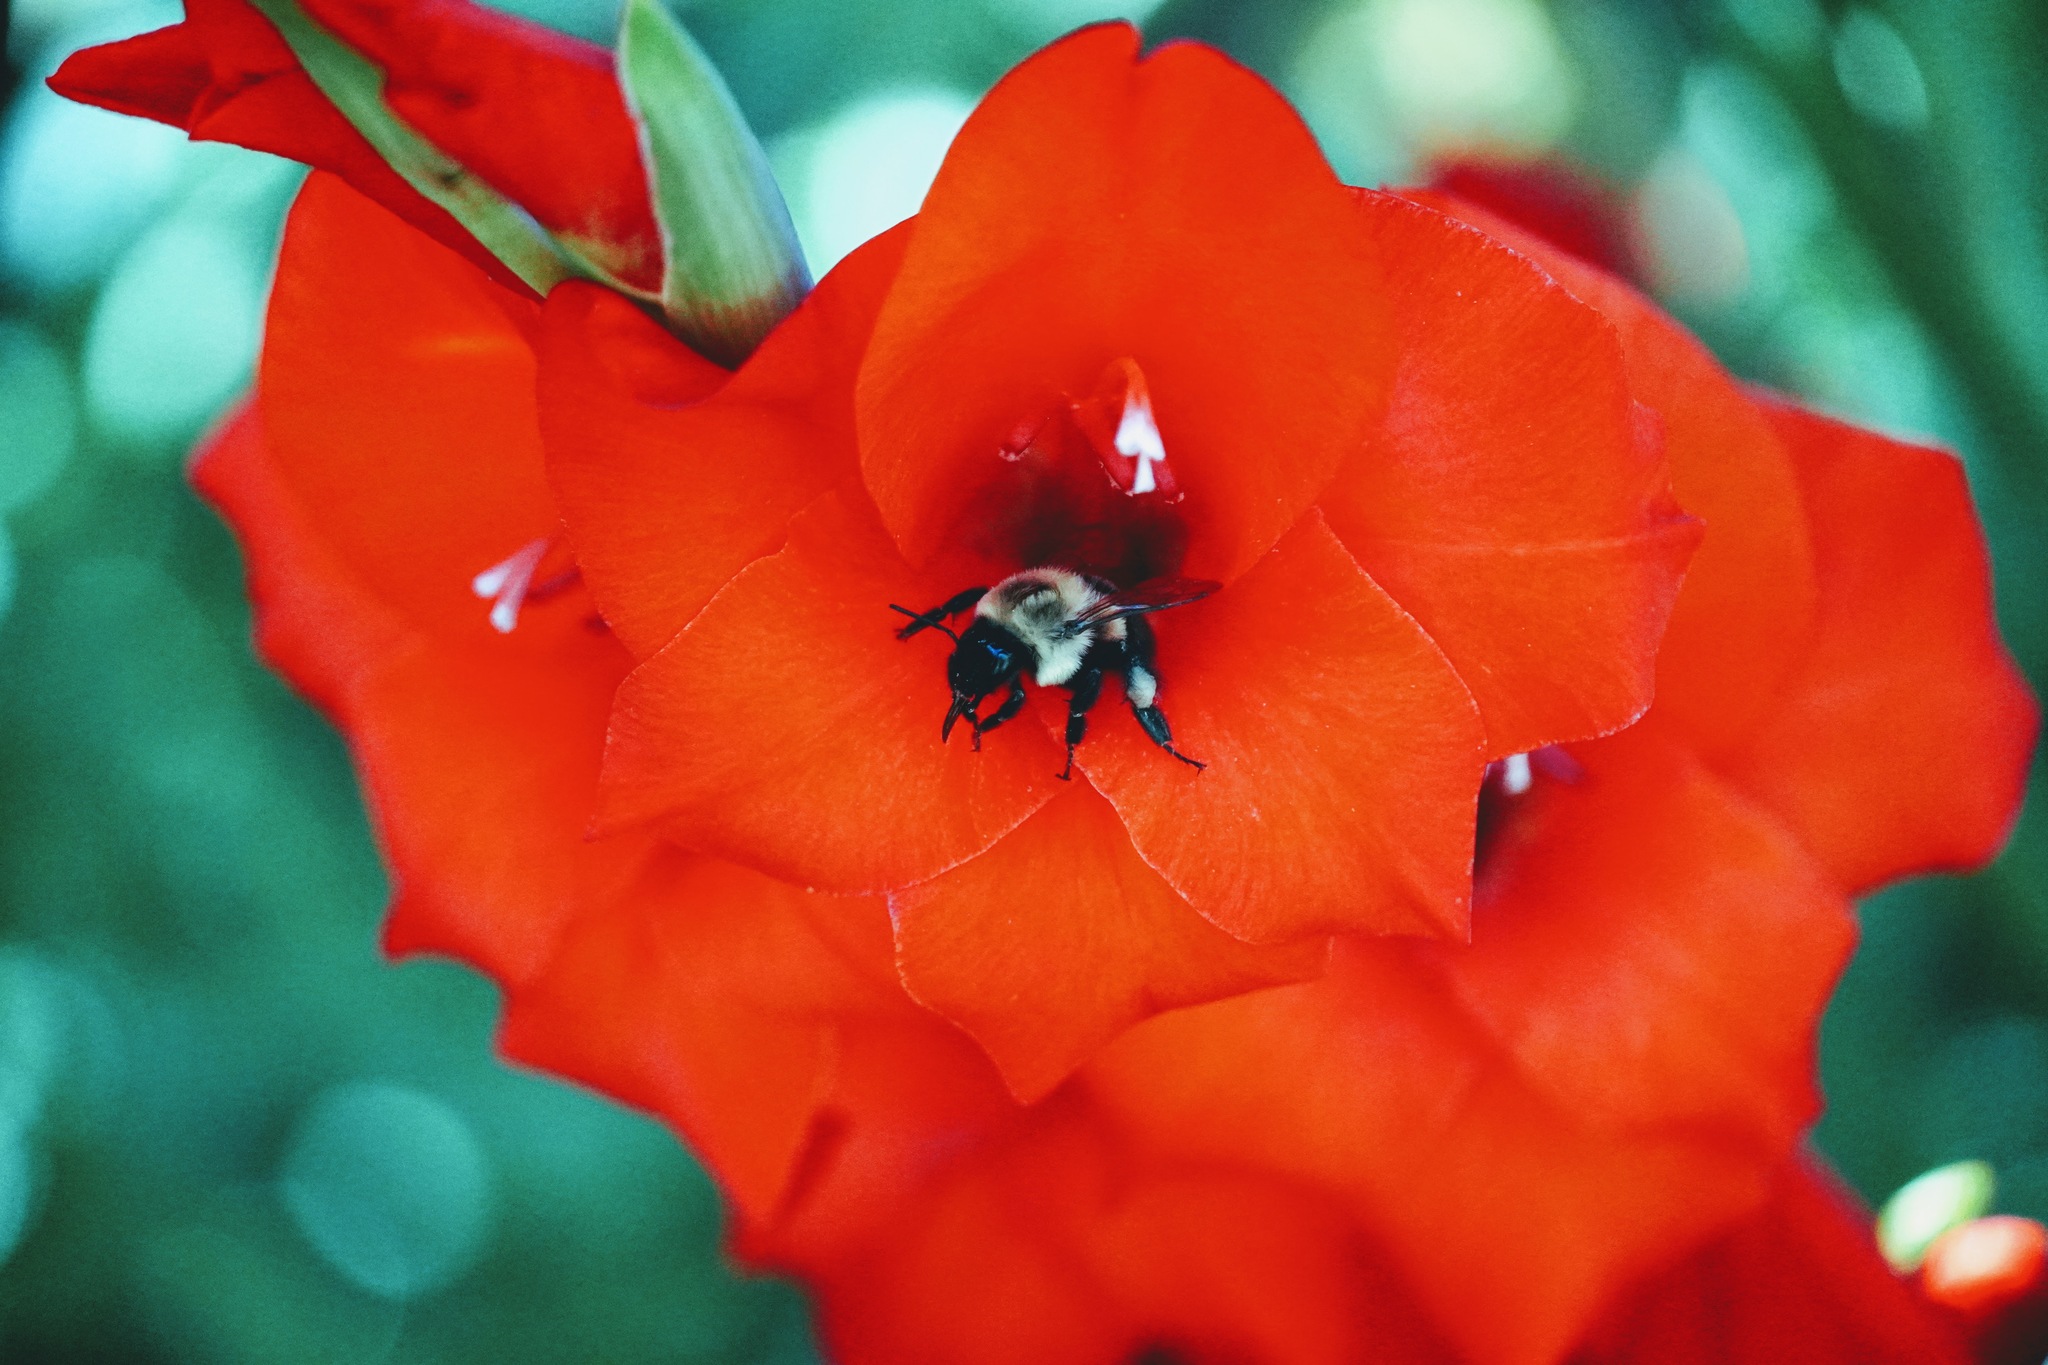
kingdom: Animalia
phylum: Arthropoda
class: Insecta
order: Hymenoptera
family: Apidae
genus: Bombus
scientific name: Bombus impatiens
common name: Common eastern bumble bee
